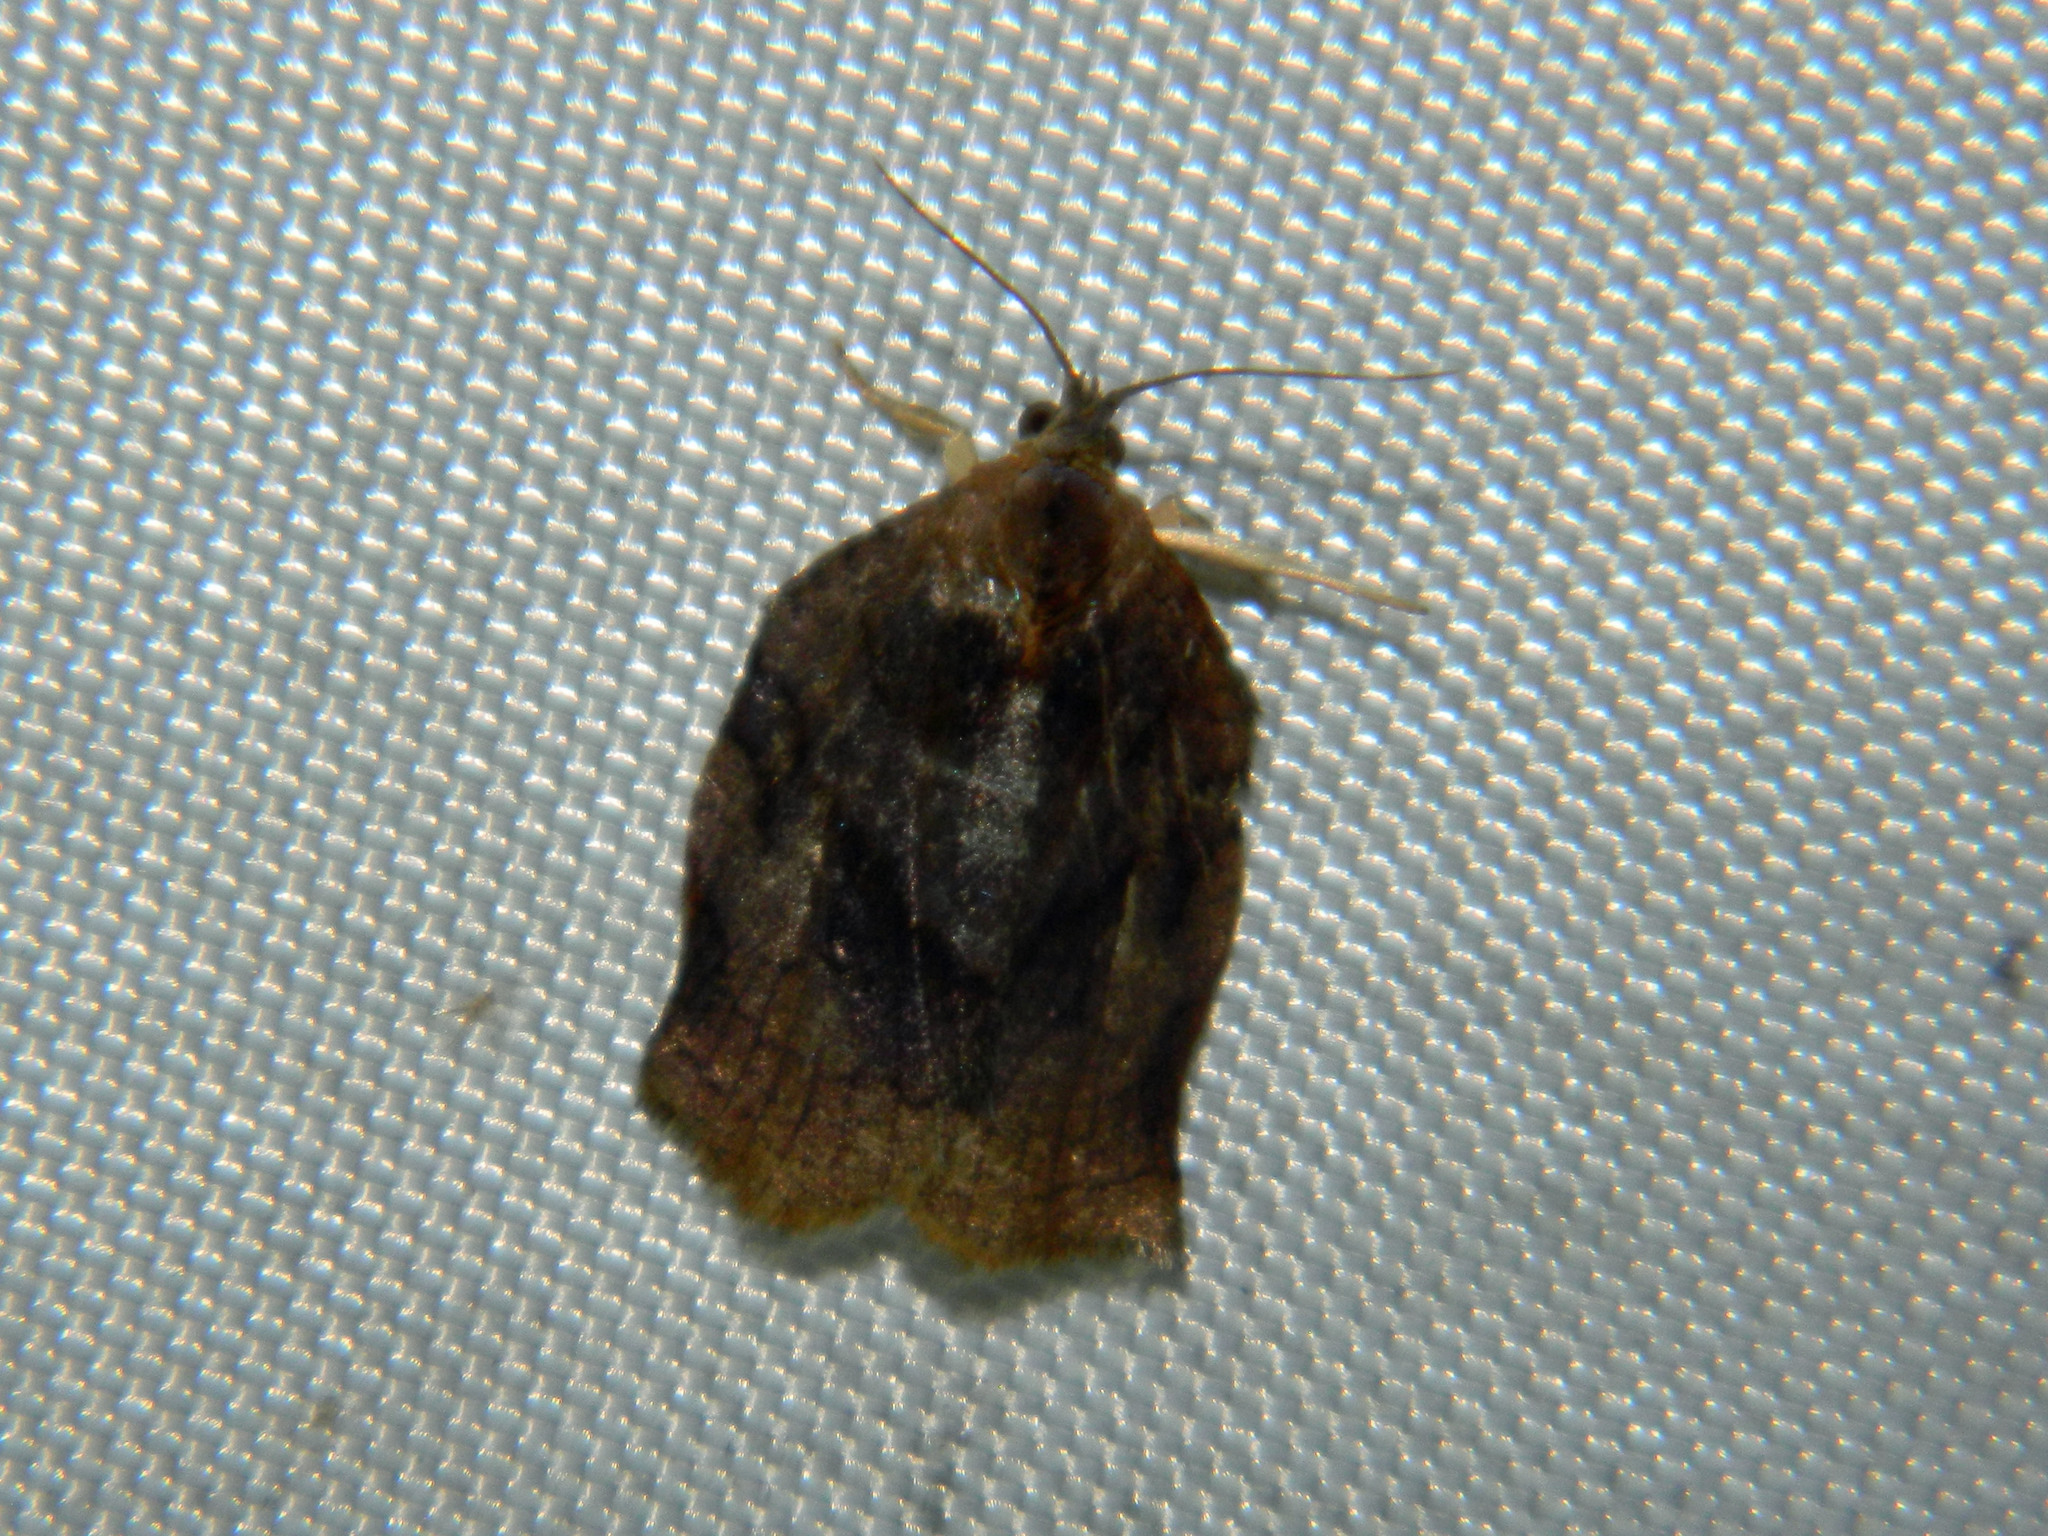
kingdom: Animalia
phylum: Arthropoda
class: Insecta
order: Lepidoptera
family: Tortricidae
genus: Archips
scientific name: Archips purpurana
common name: Omnivorous leafroller
